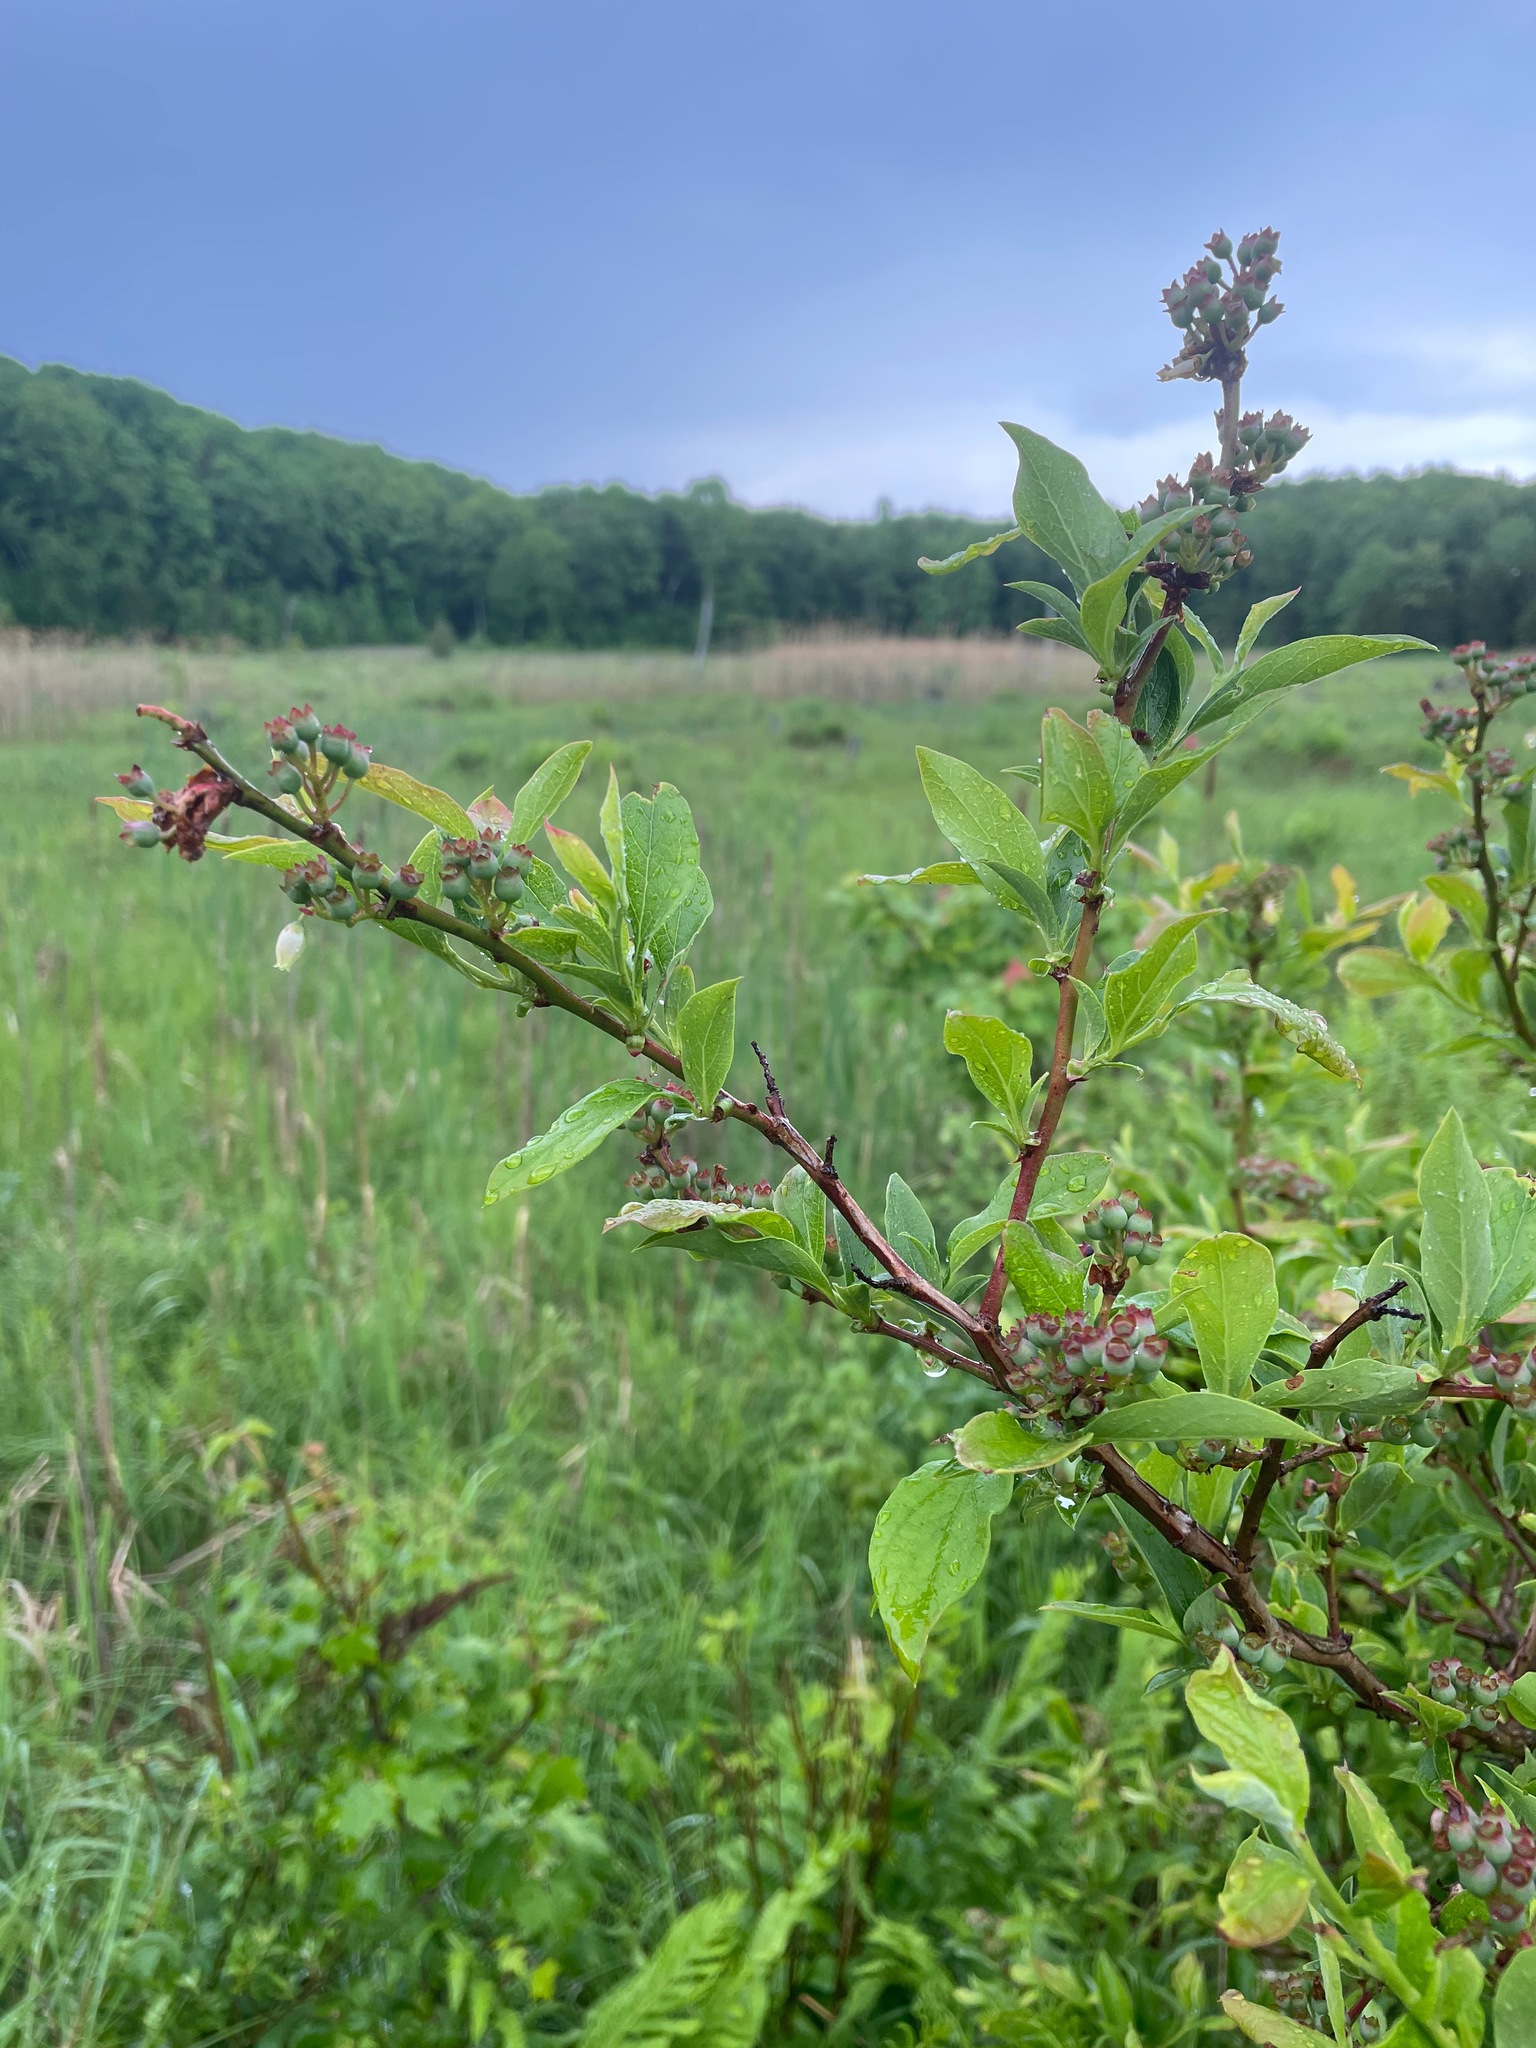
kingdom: Plantae
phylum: Tracheophyta
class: Magnoliopsida
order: Ericales
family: Ericaceae
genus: Vaccinium
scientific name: Vaccinium corymbosum
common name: Blueberry
